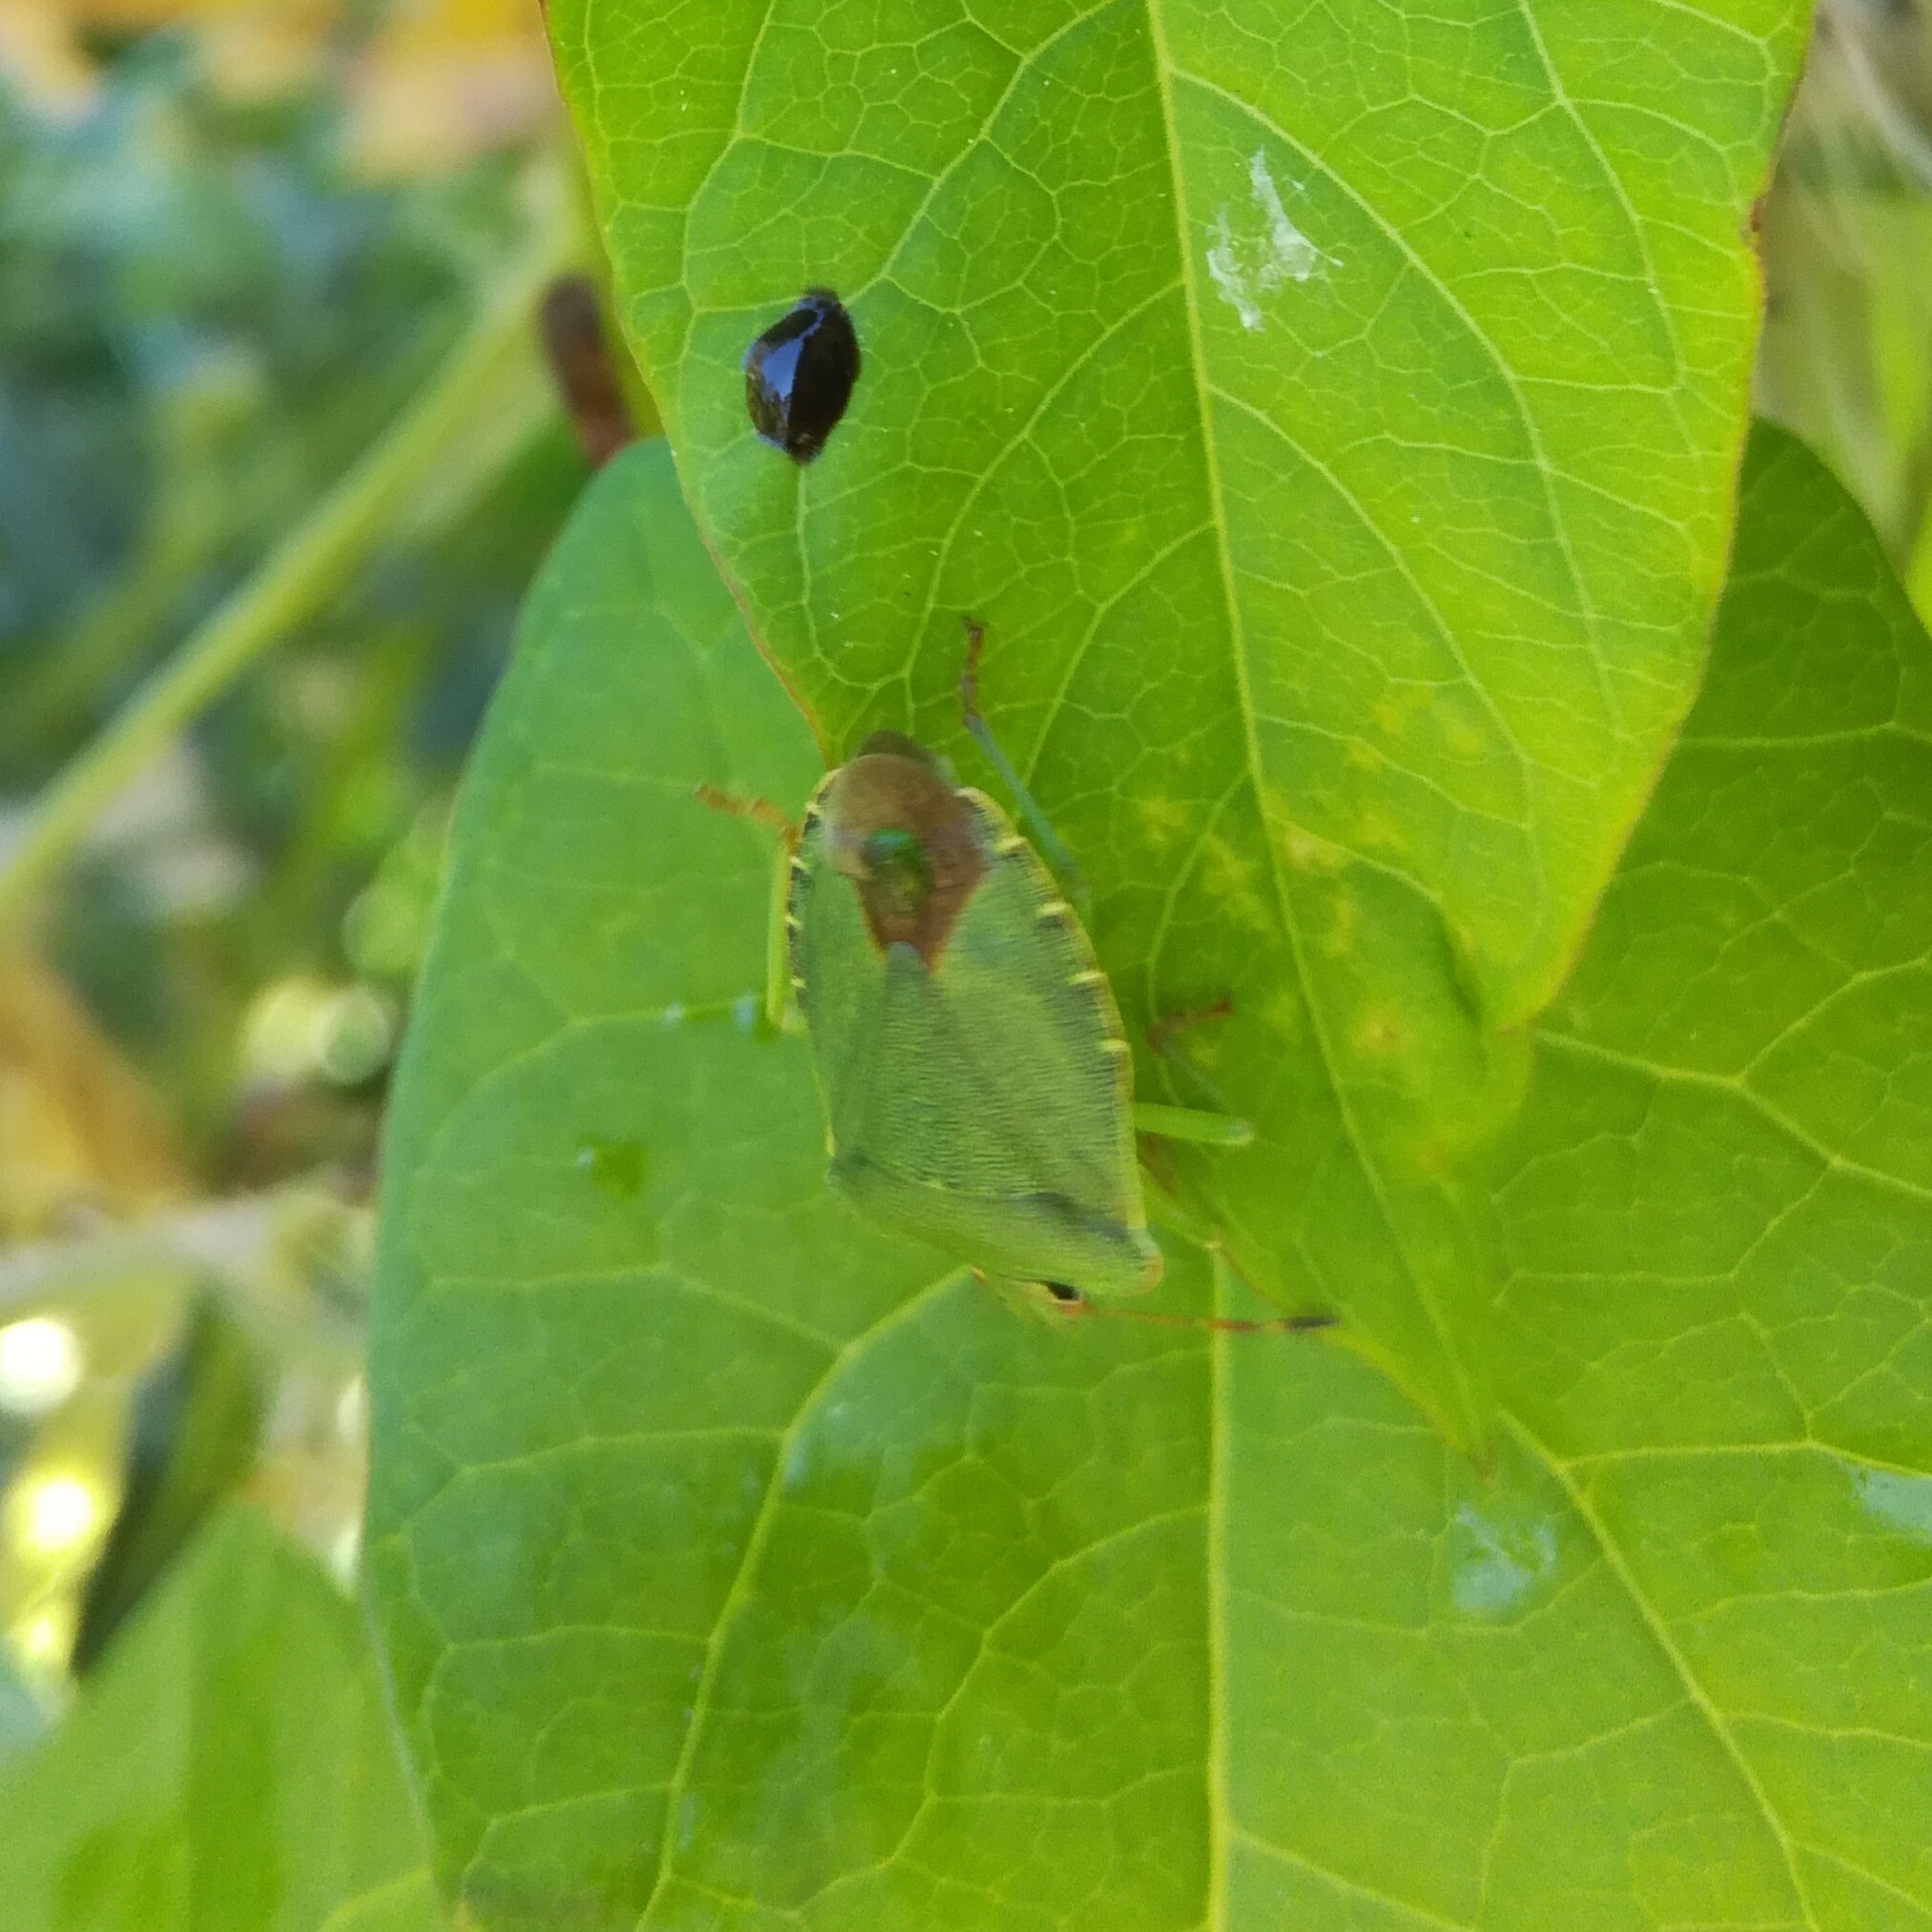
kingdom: Animalia
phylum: Arthropoda
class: Insecta
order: Hemiptera
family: Pentatomidae
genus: Palomena
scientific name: Palomena prasina
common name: Green shieldbug
